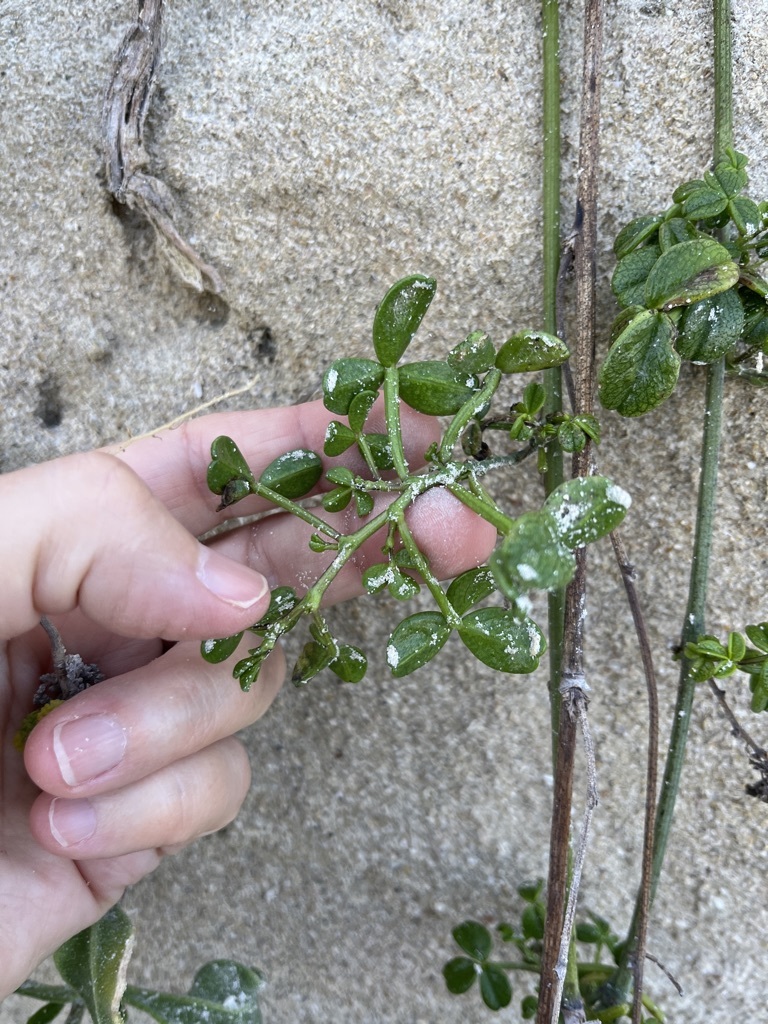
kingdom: Plantae
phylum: Tracheophyta
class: Magnoliopsida
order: Fabales
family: Fabaceae
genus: Psoralea
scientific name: Psoralea repens
